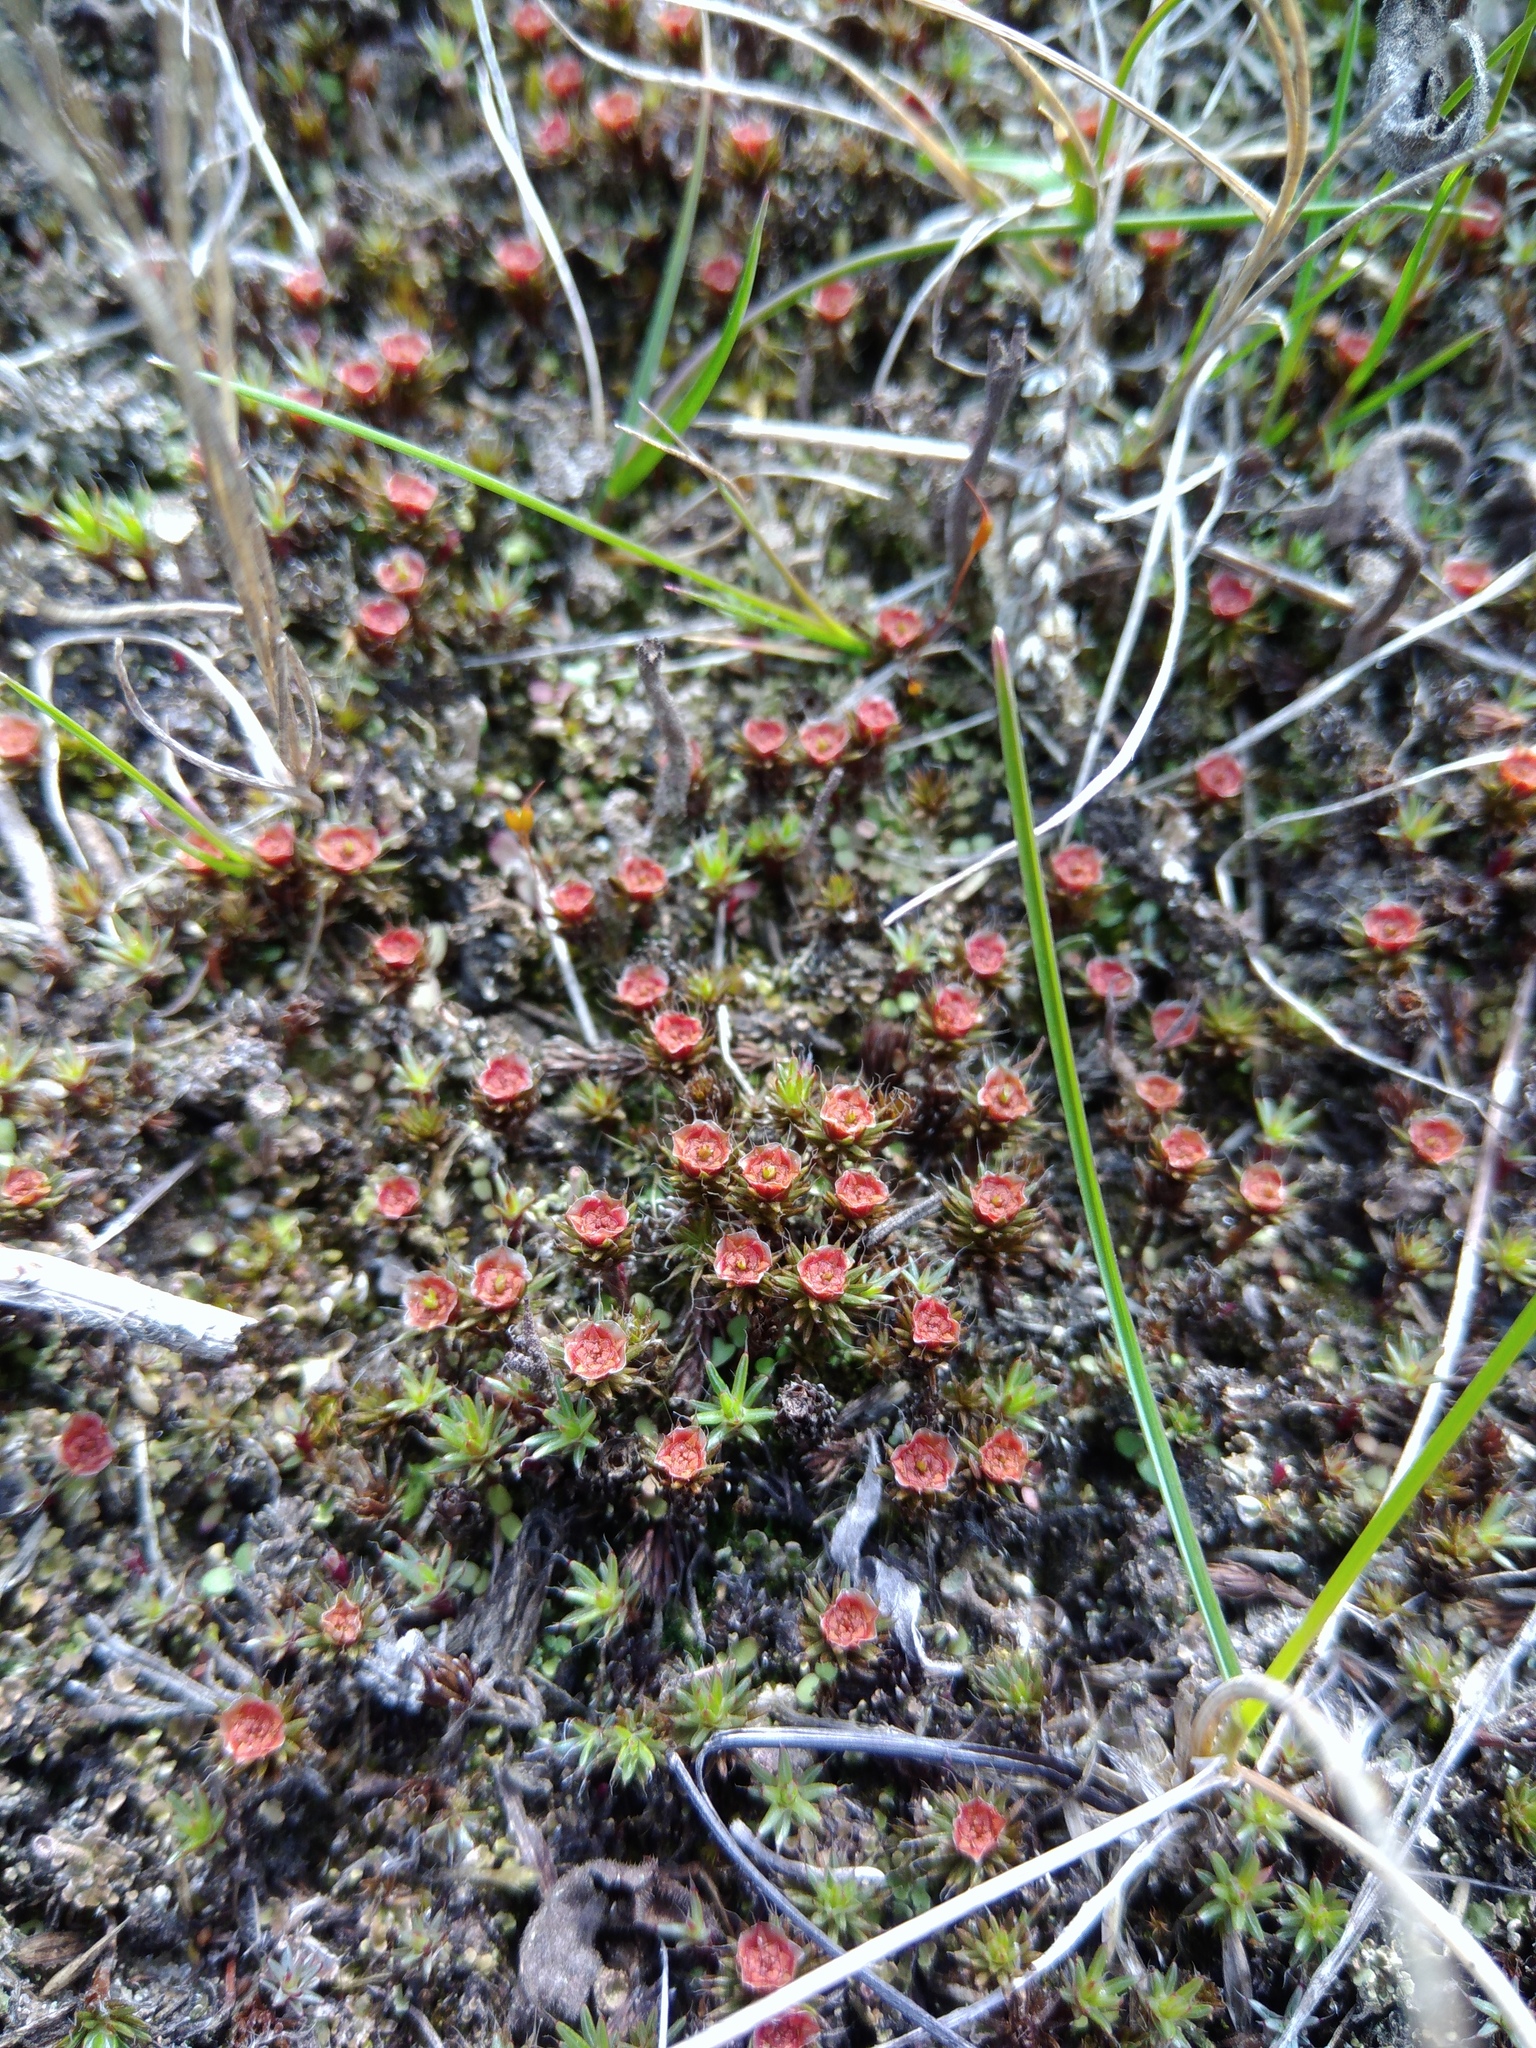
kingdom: Plantae
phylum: Bryophyta
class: Polytrichopsida
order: Polytrichales
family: Polytrichaceae
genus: Polytrichum
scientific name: Polytrichum piliferum
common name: Bristly haircap
